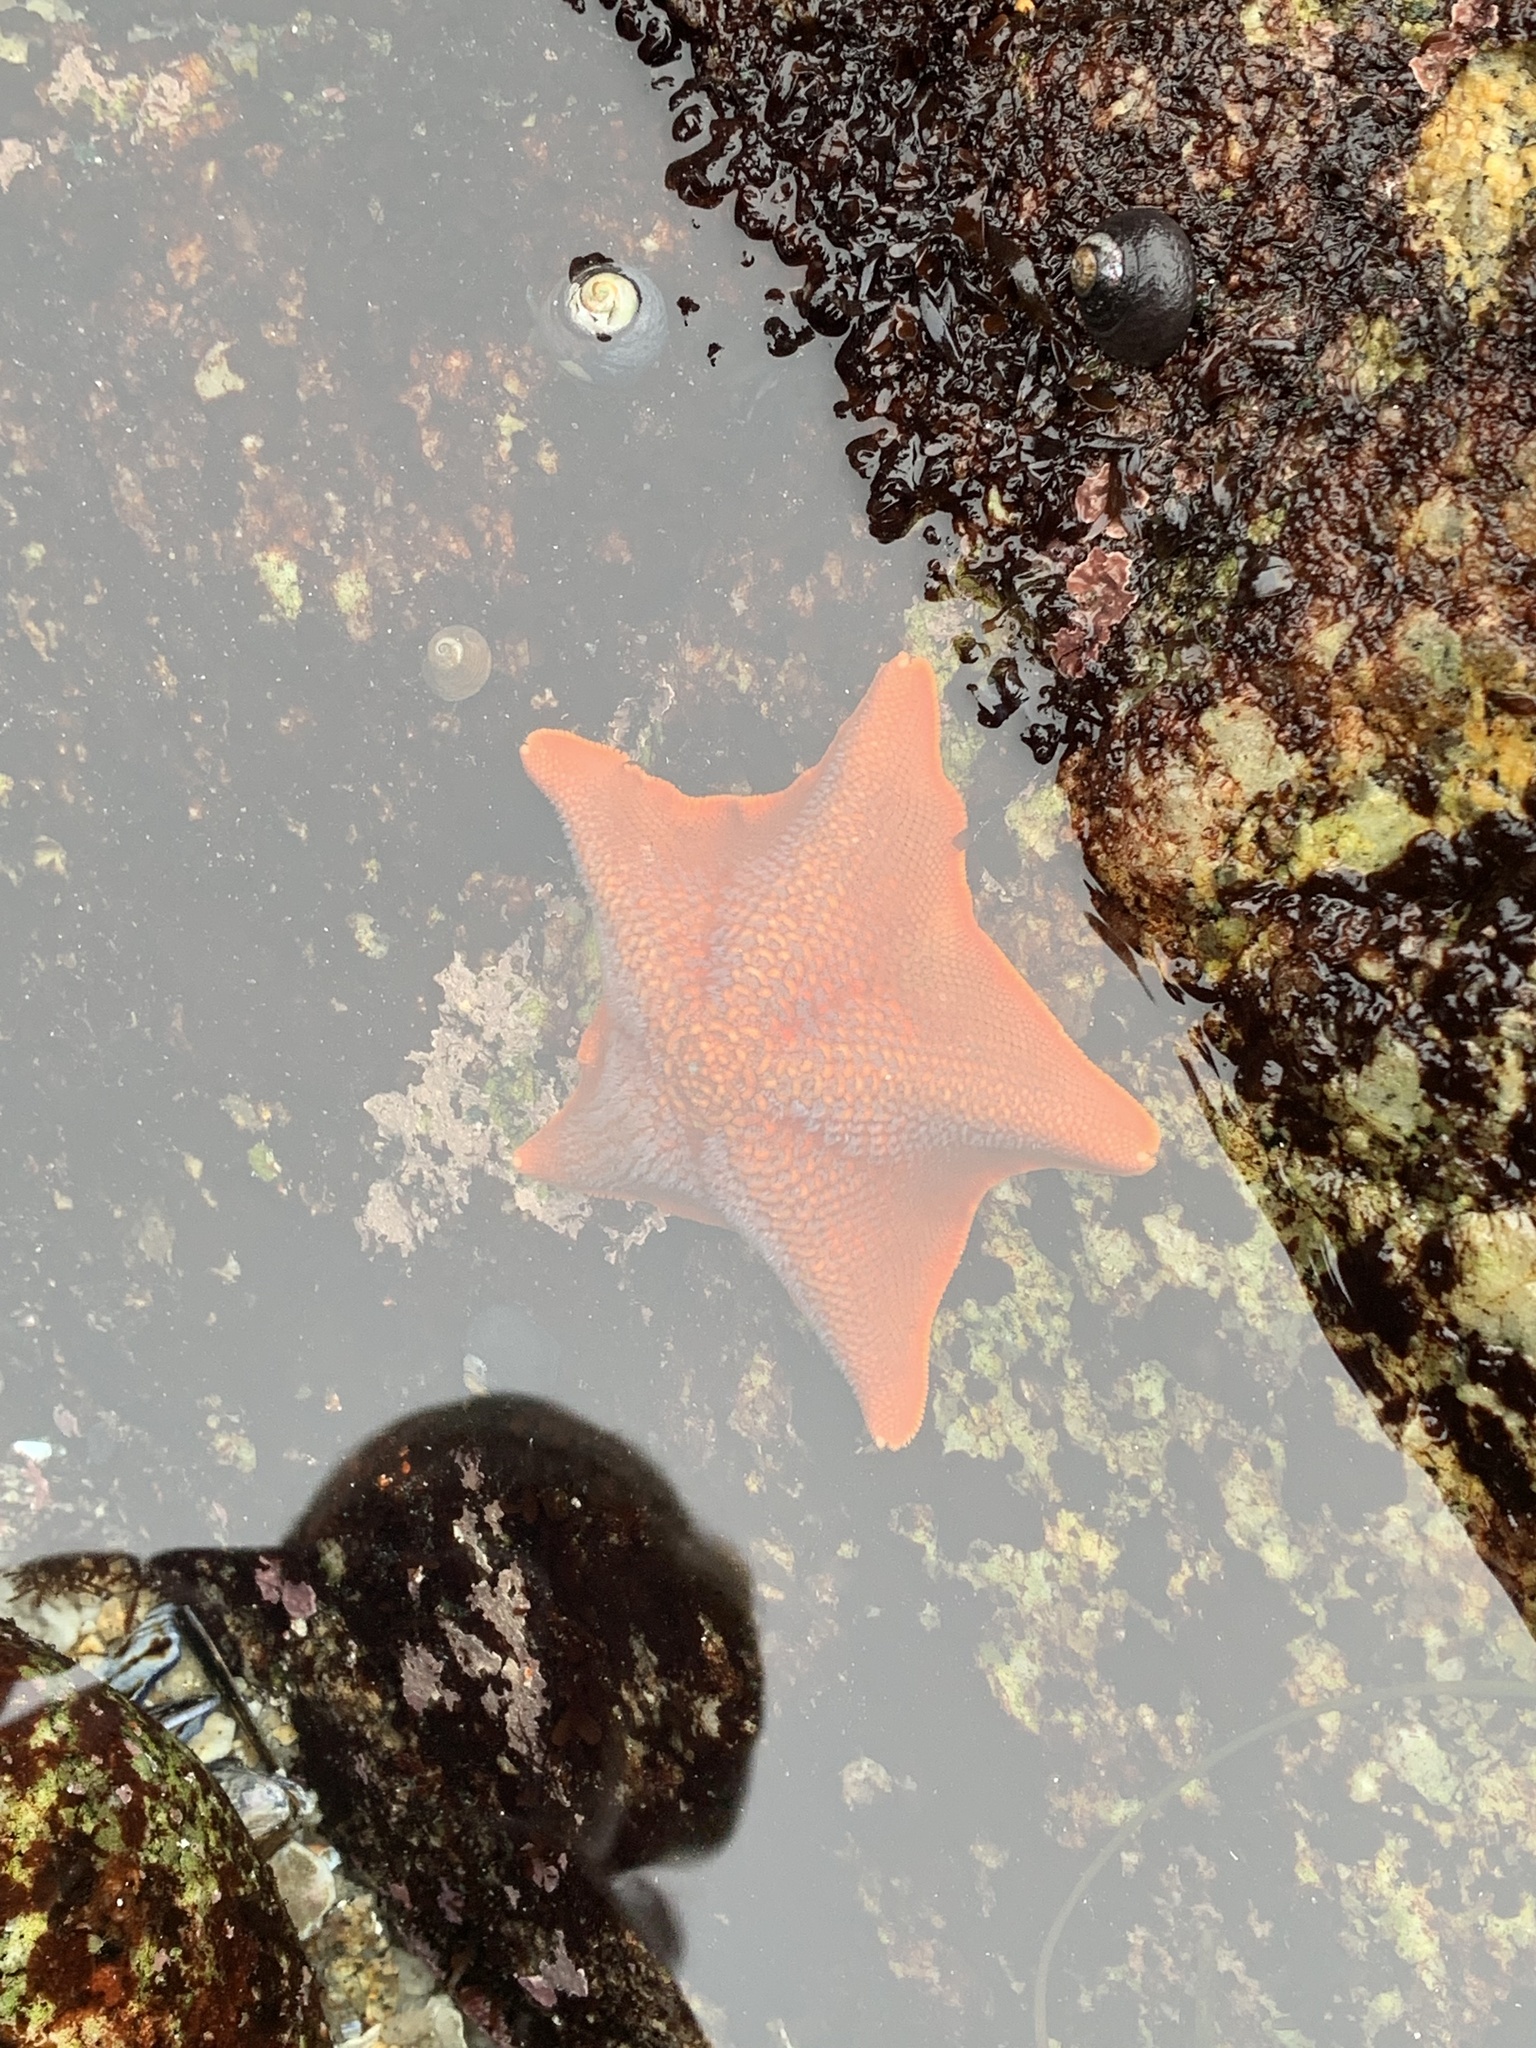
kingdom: Animalia
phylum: Echinodermata
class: Asteroidea
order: Valvatida
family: Asterinidae
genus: Patiria
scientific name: Patiria miniata
